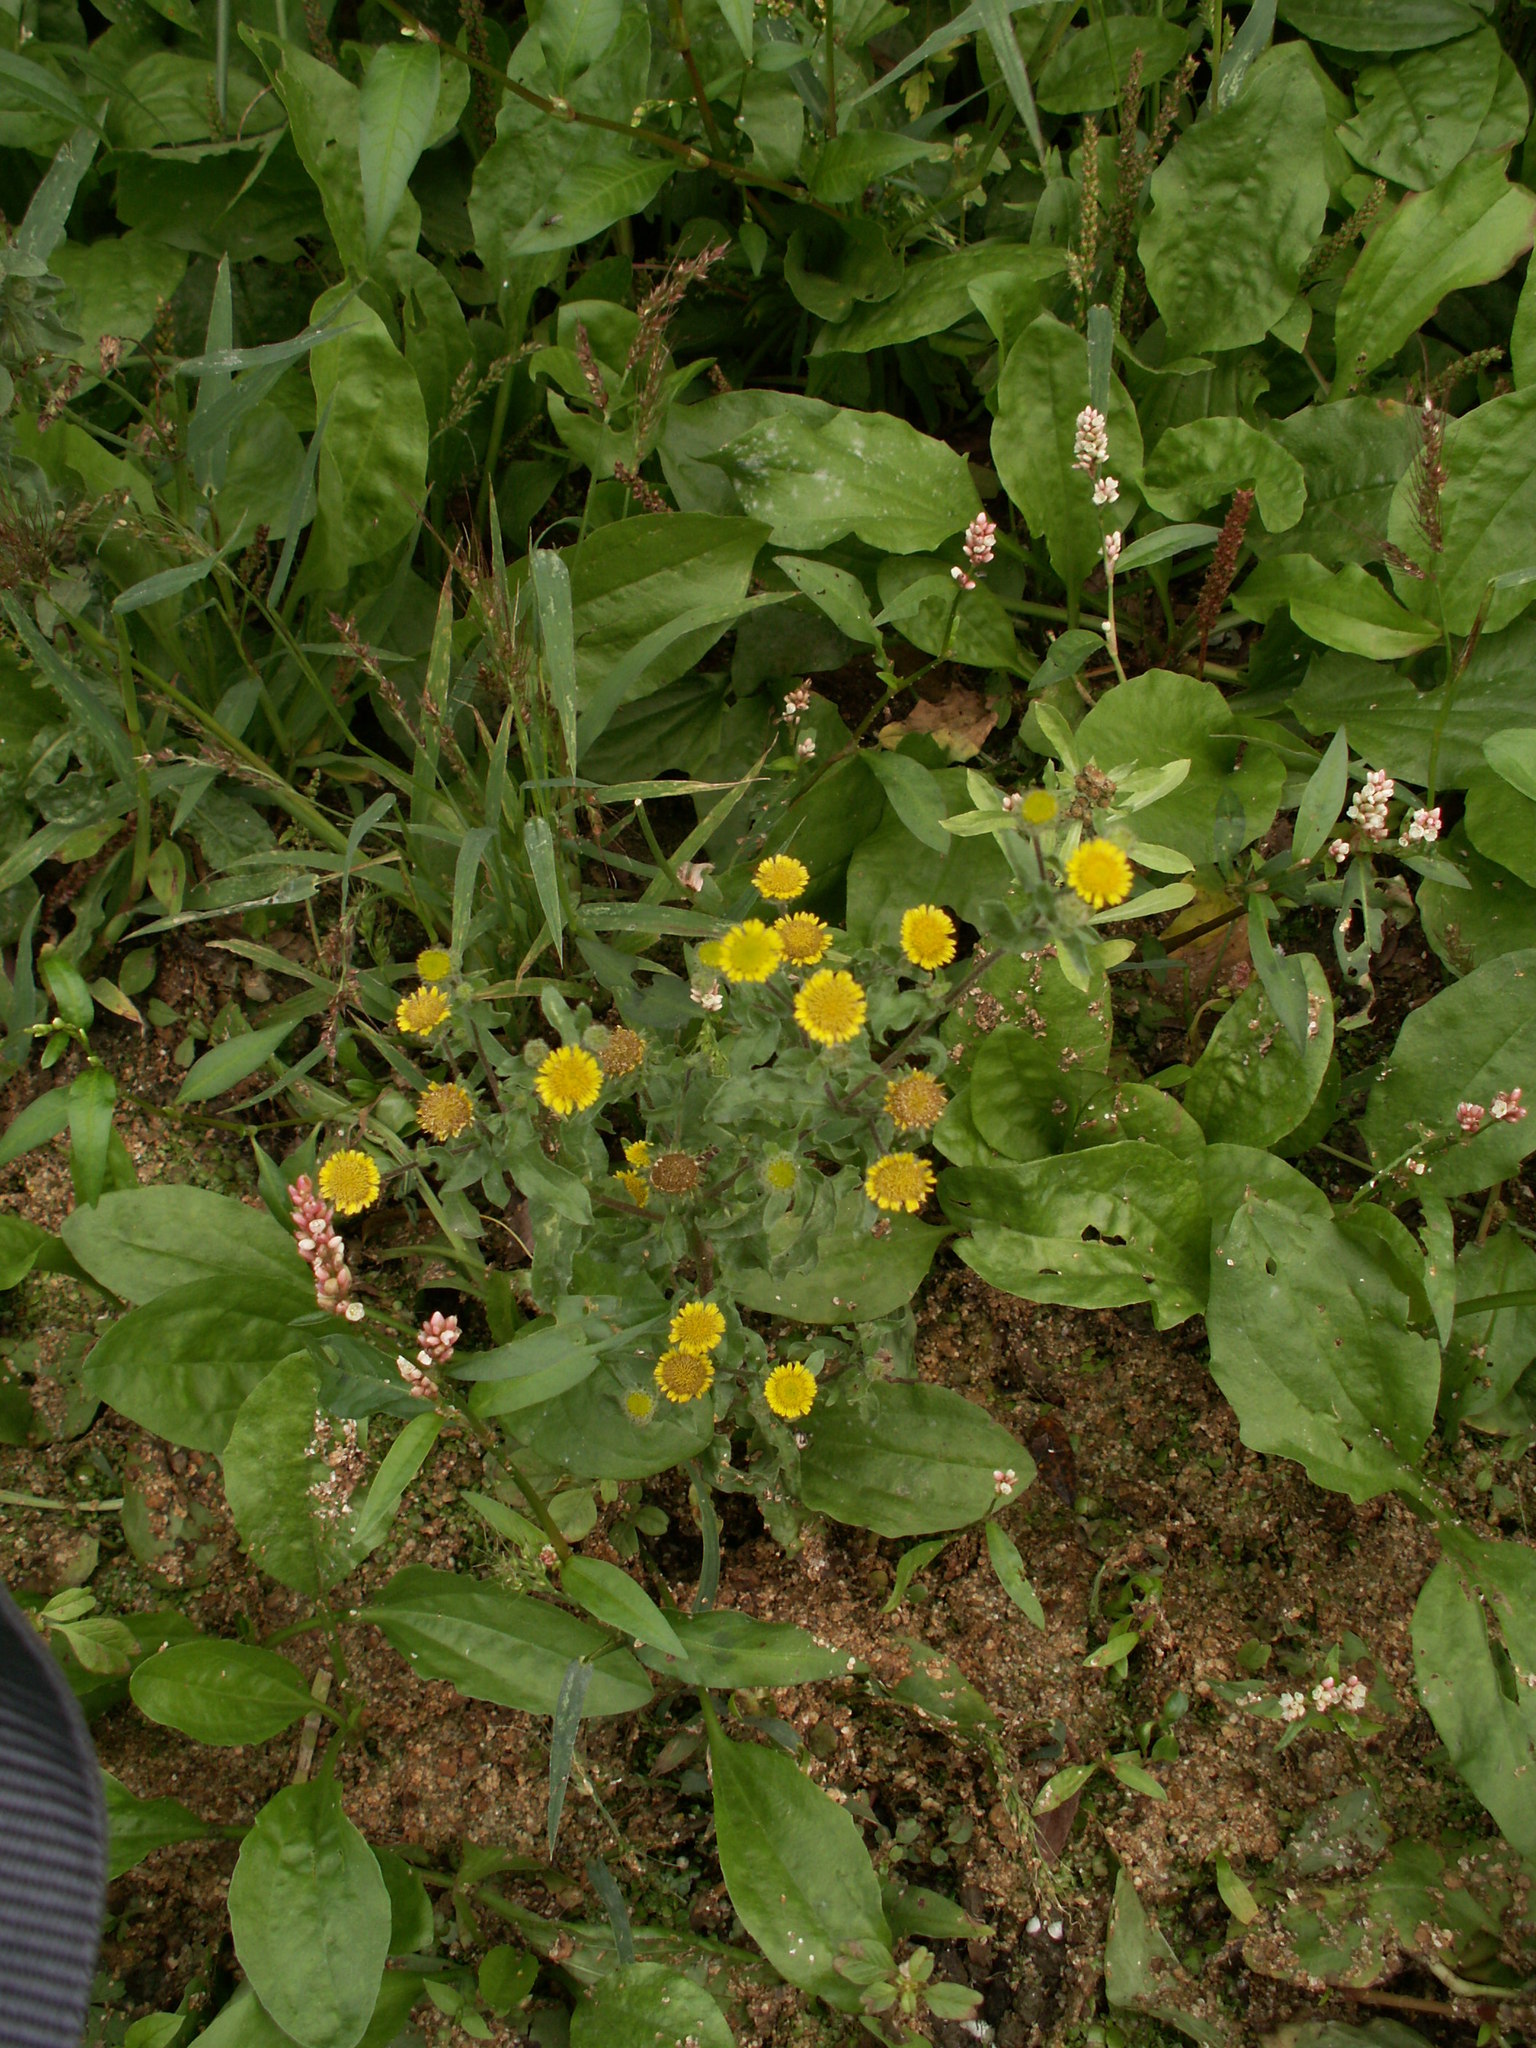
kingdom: Plantae
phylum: Tracheophyta
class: Magnoliopsida
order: Asterales
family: Asteraceae
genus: Pulicaria
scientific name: Pulicaria vulgaris
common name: Small fleabane
